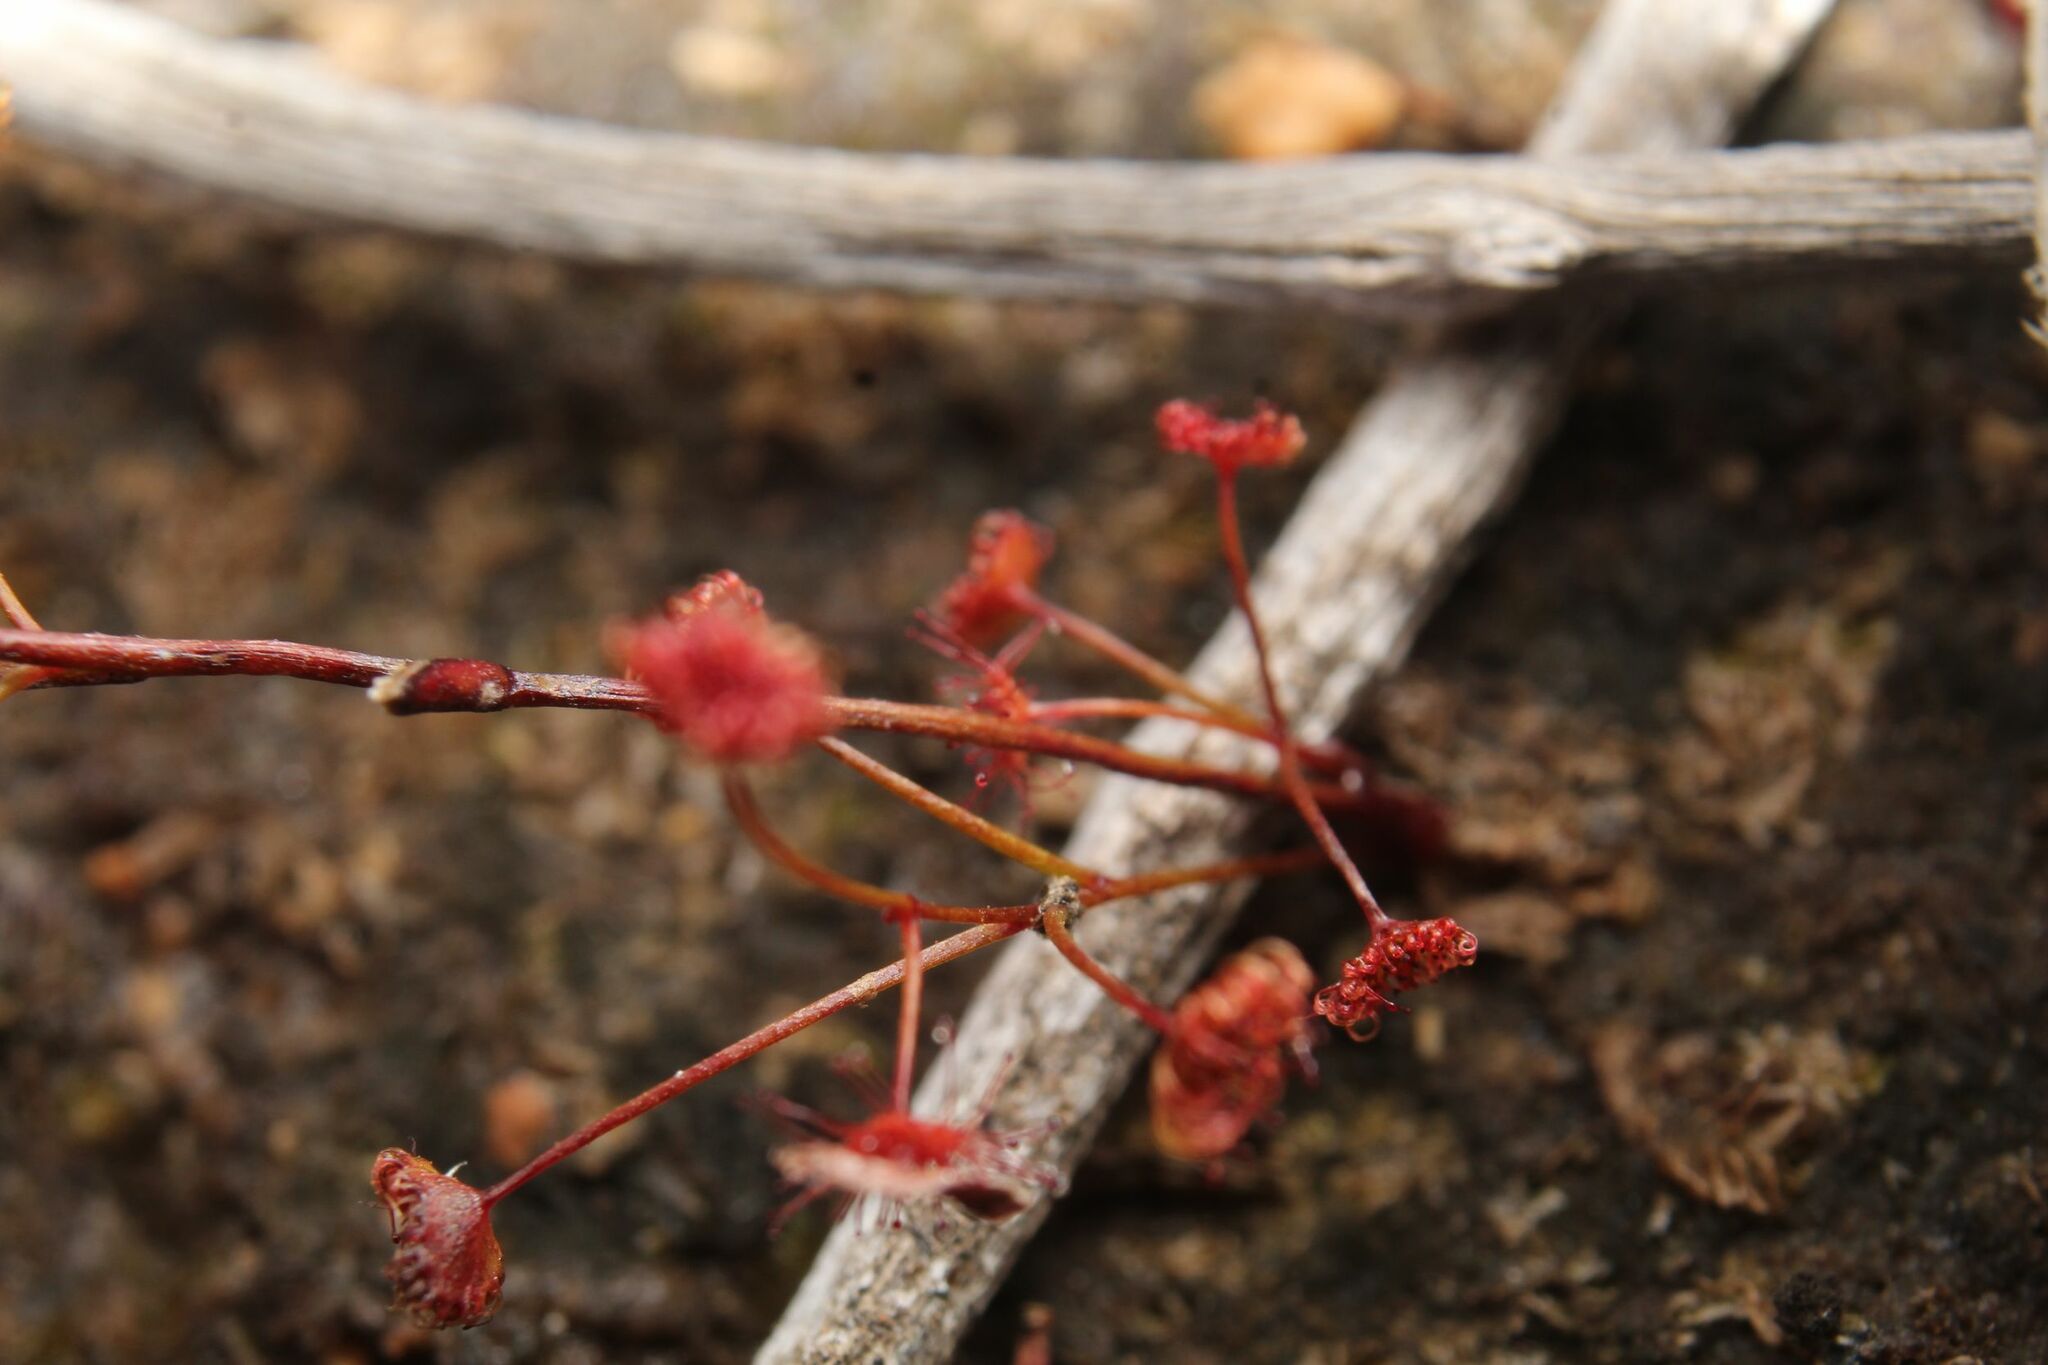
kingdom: Plantae
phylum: Tracheophyta
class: Magnoliopsida
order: Caryophyllales
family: Droseraceae
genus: Drosera
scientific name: Drosera moorei
